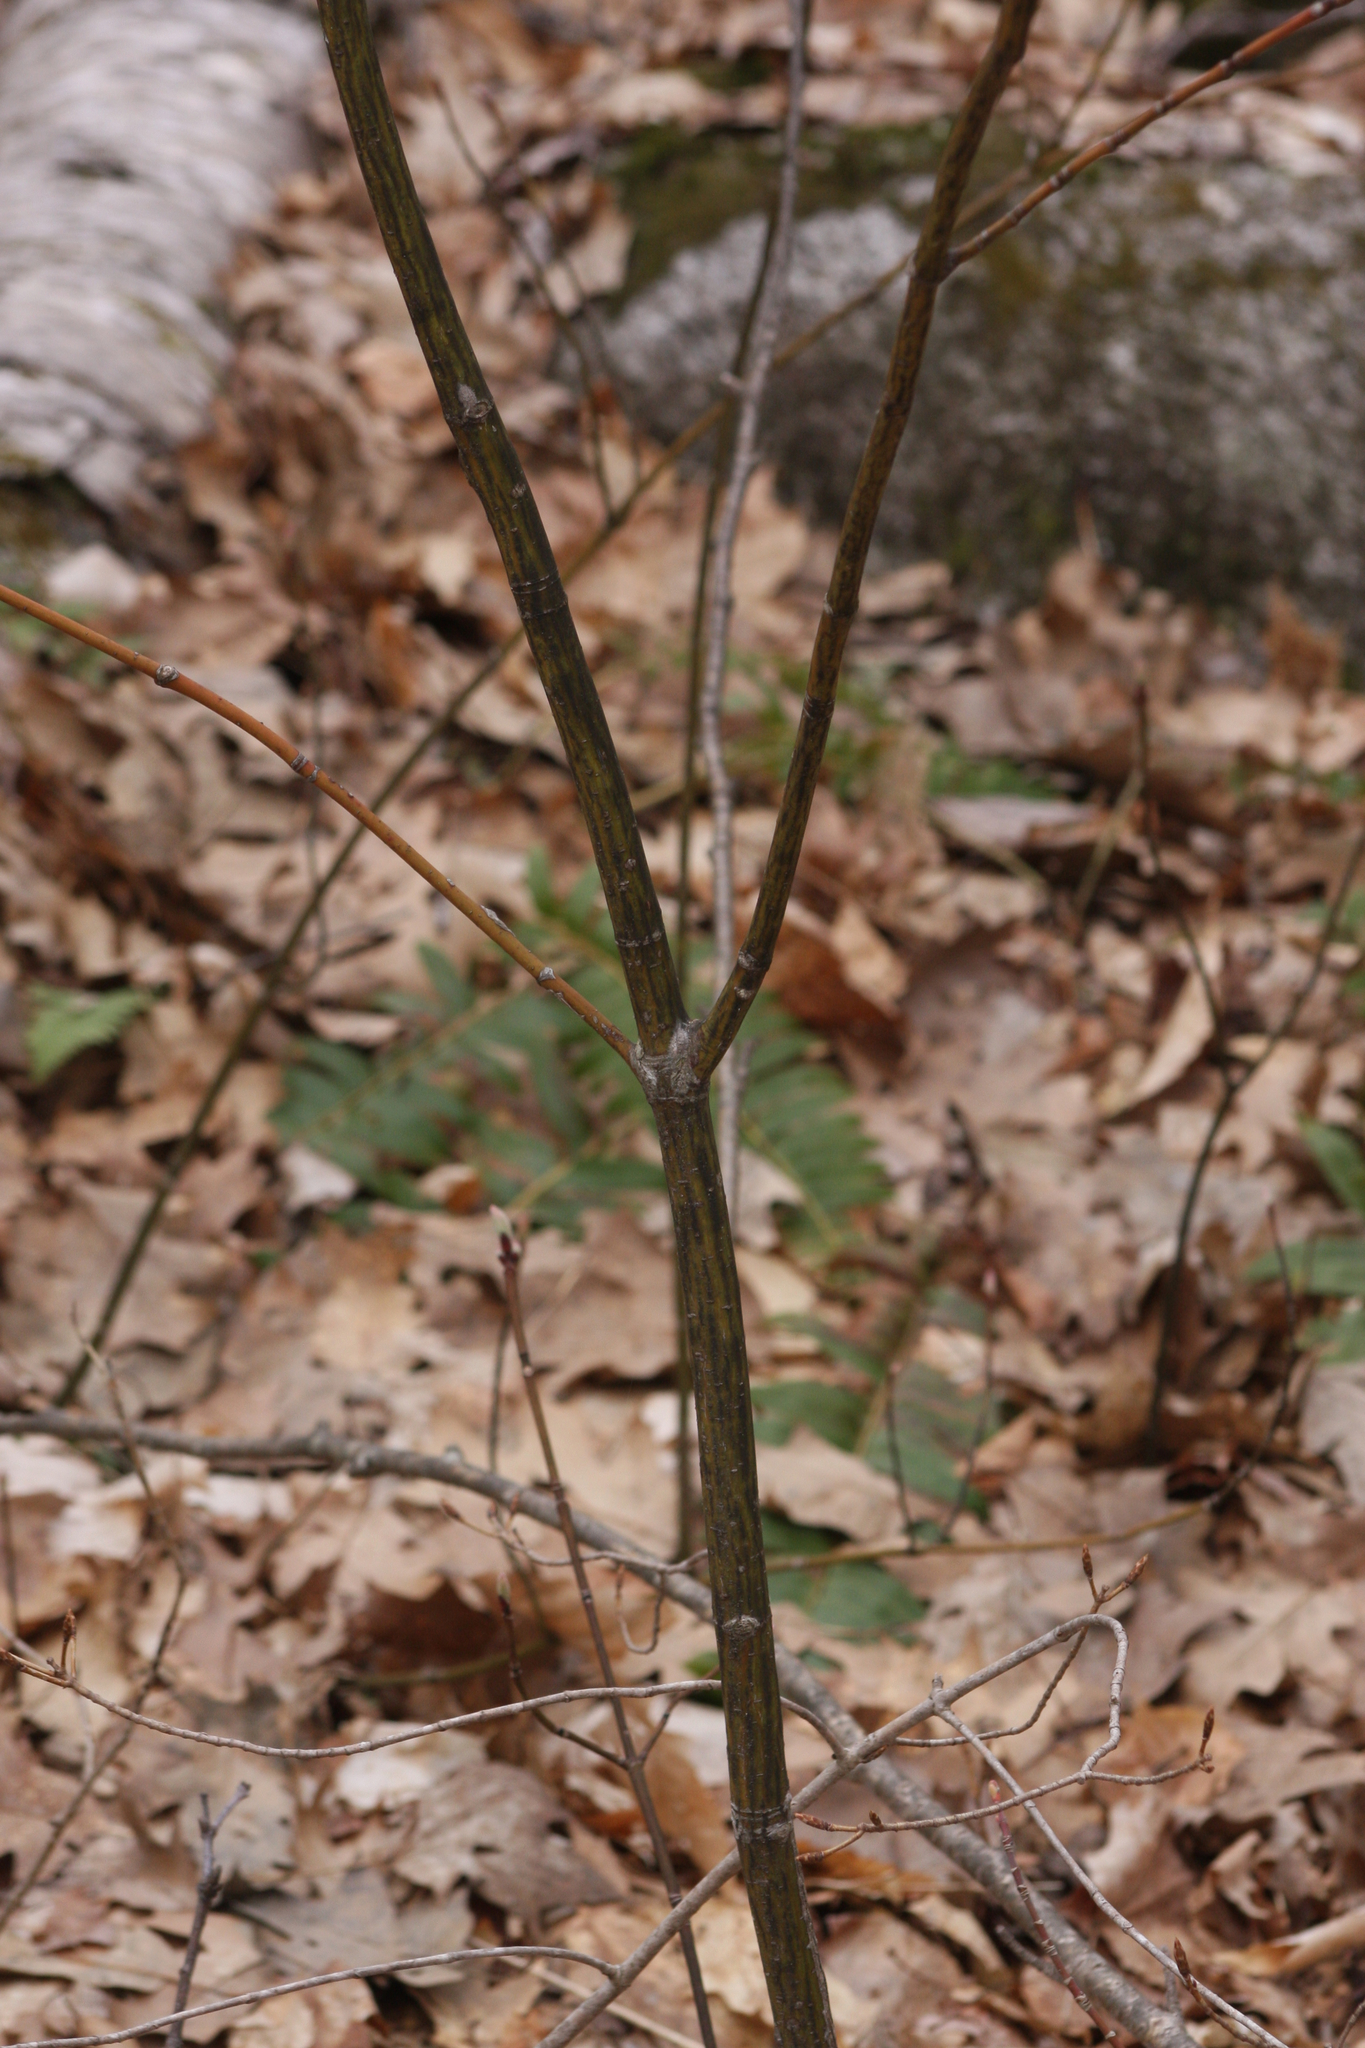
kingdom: Plantae
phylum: Tracheophyta
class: Magnoliopsida
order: Sapindales
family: Sapindaceae
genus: Acer
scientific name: Acer pensylvanicum
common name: Moosewood
